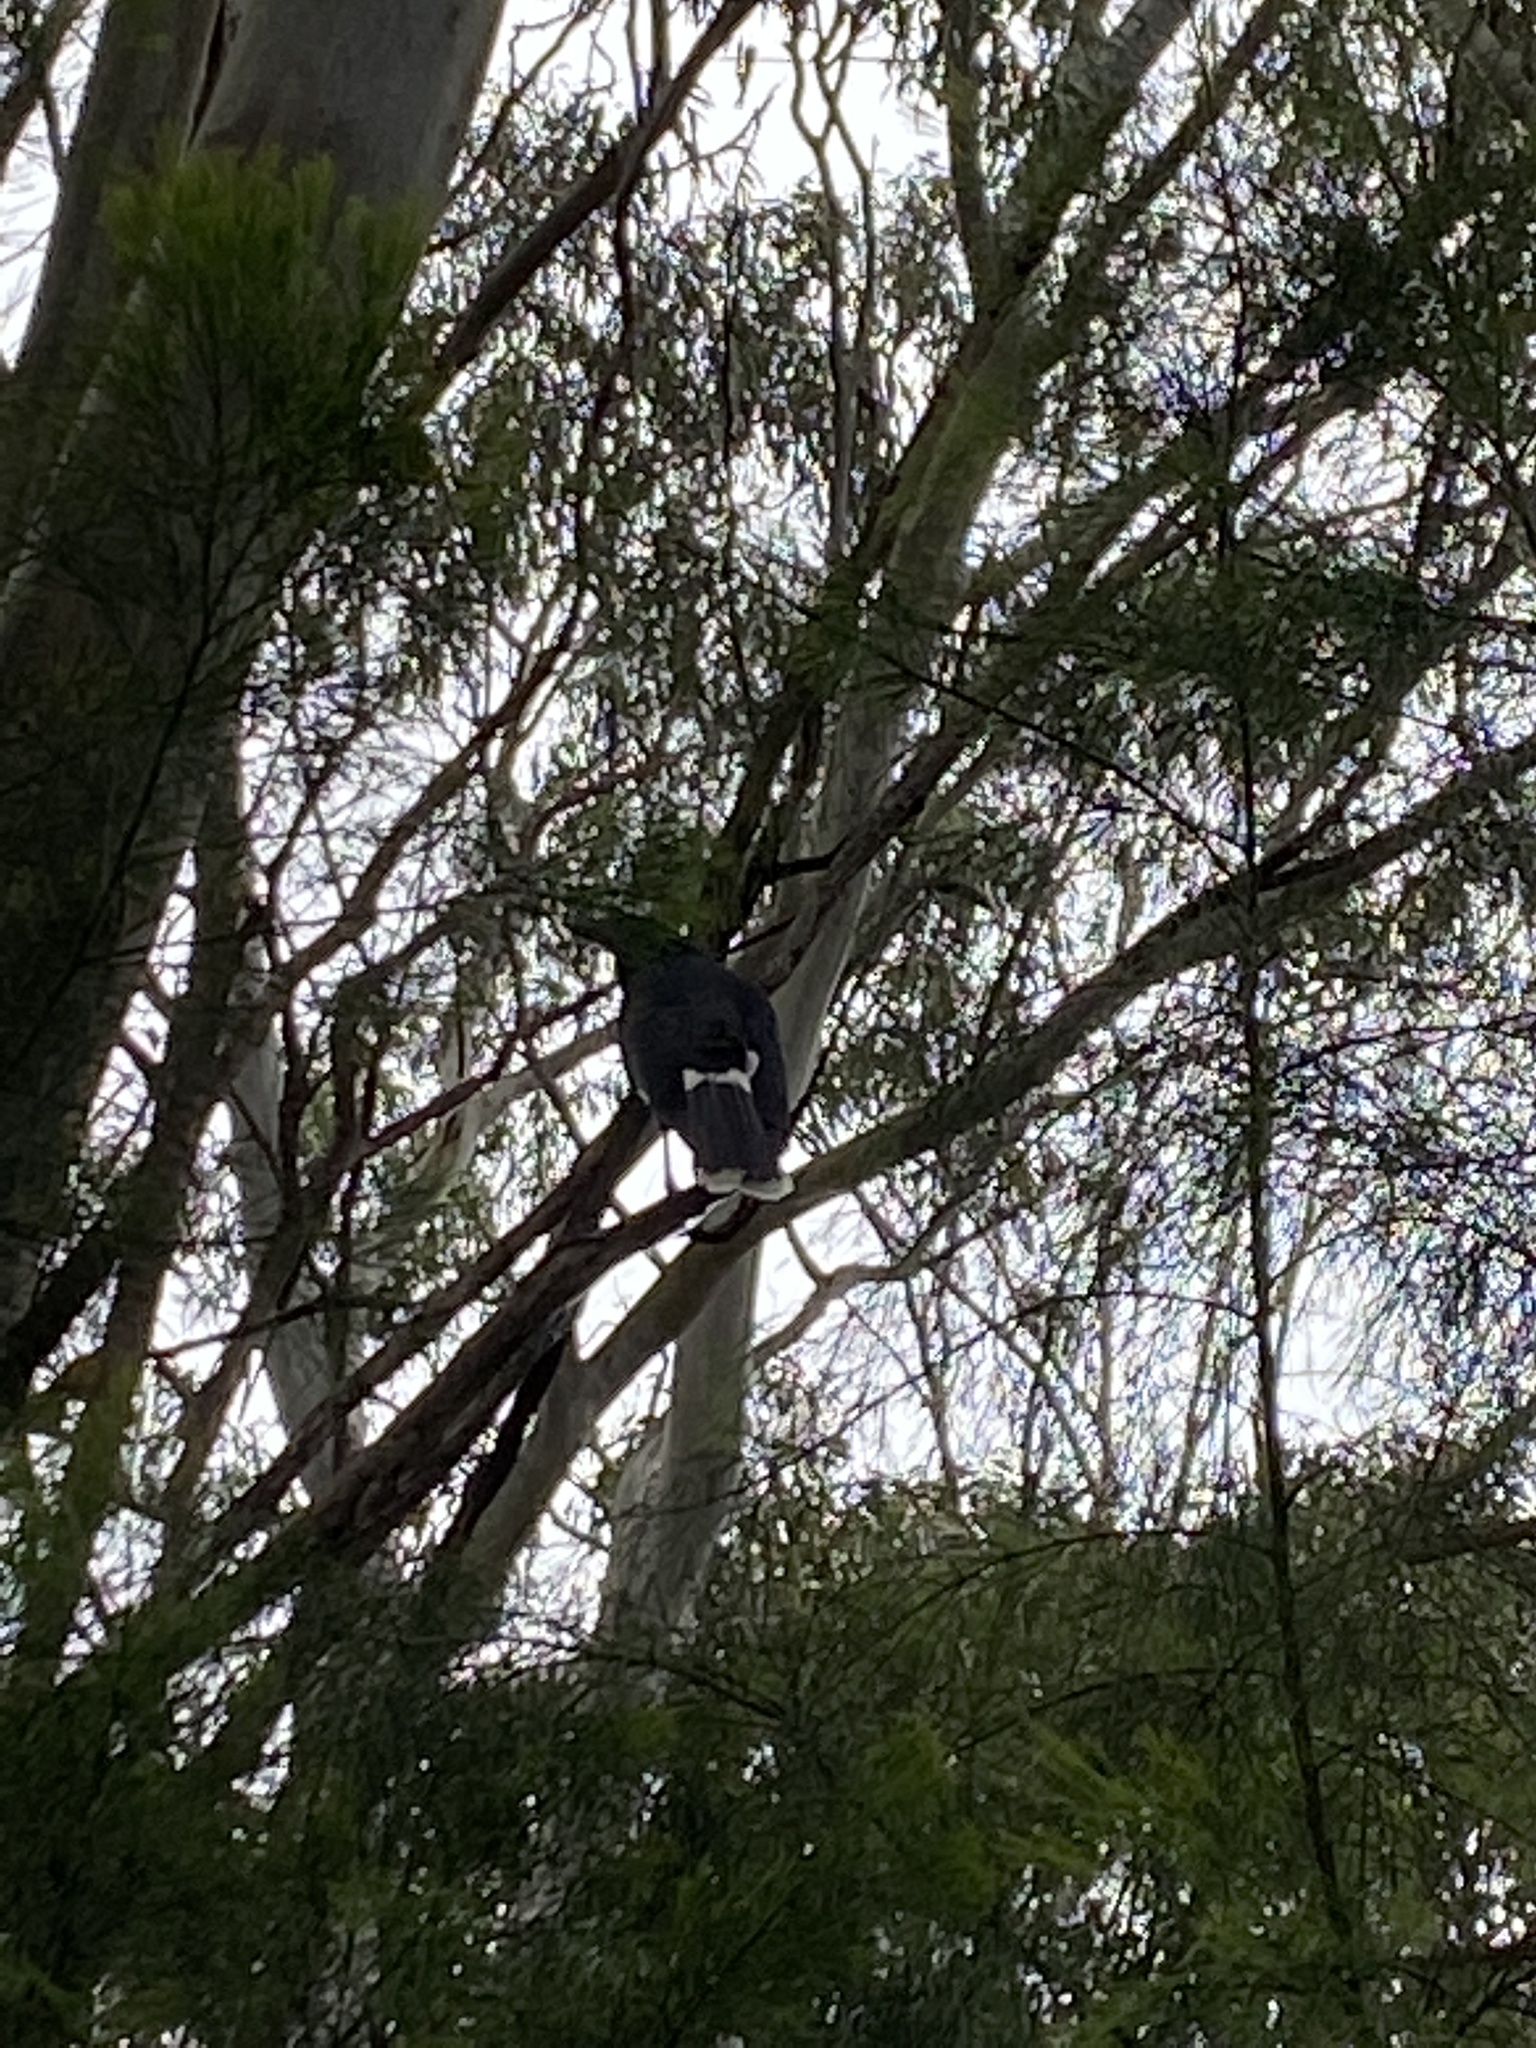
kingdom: Animalia
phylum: Chordata
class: Aves
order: Passeriformes
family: Cracticidae
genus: Strepera
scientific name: Strepera graculina
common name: Pied currawong
